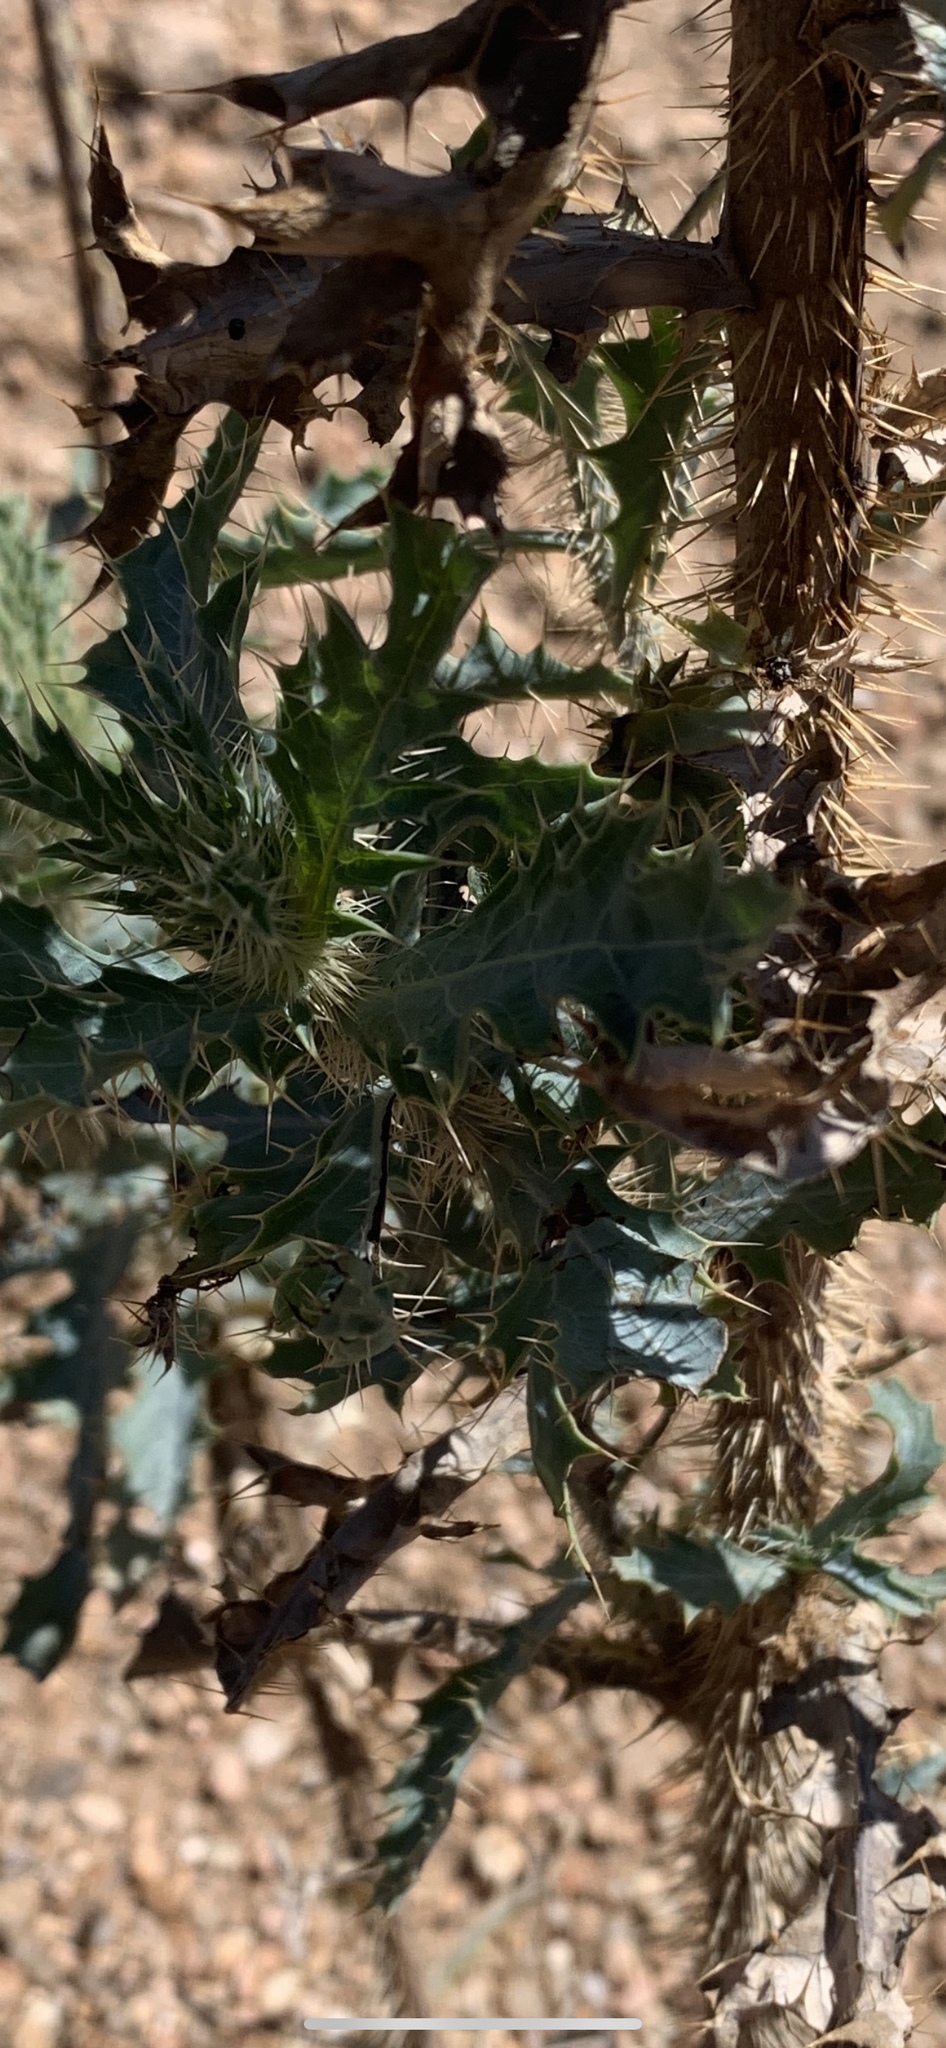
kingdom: Plantae
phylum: Tracheophyta
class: Magnoliopsida
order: Ranunculales
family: Papaveraceae
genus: Argemone
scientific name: Argemone pleiacantha
